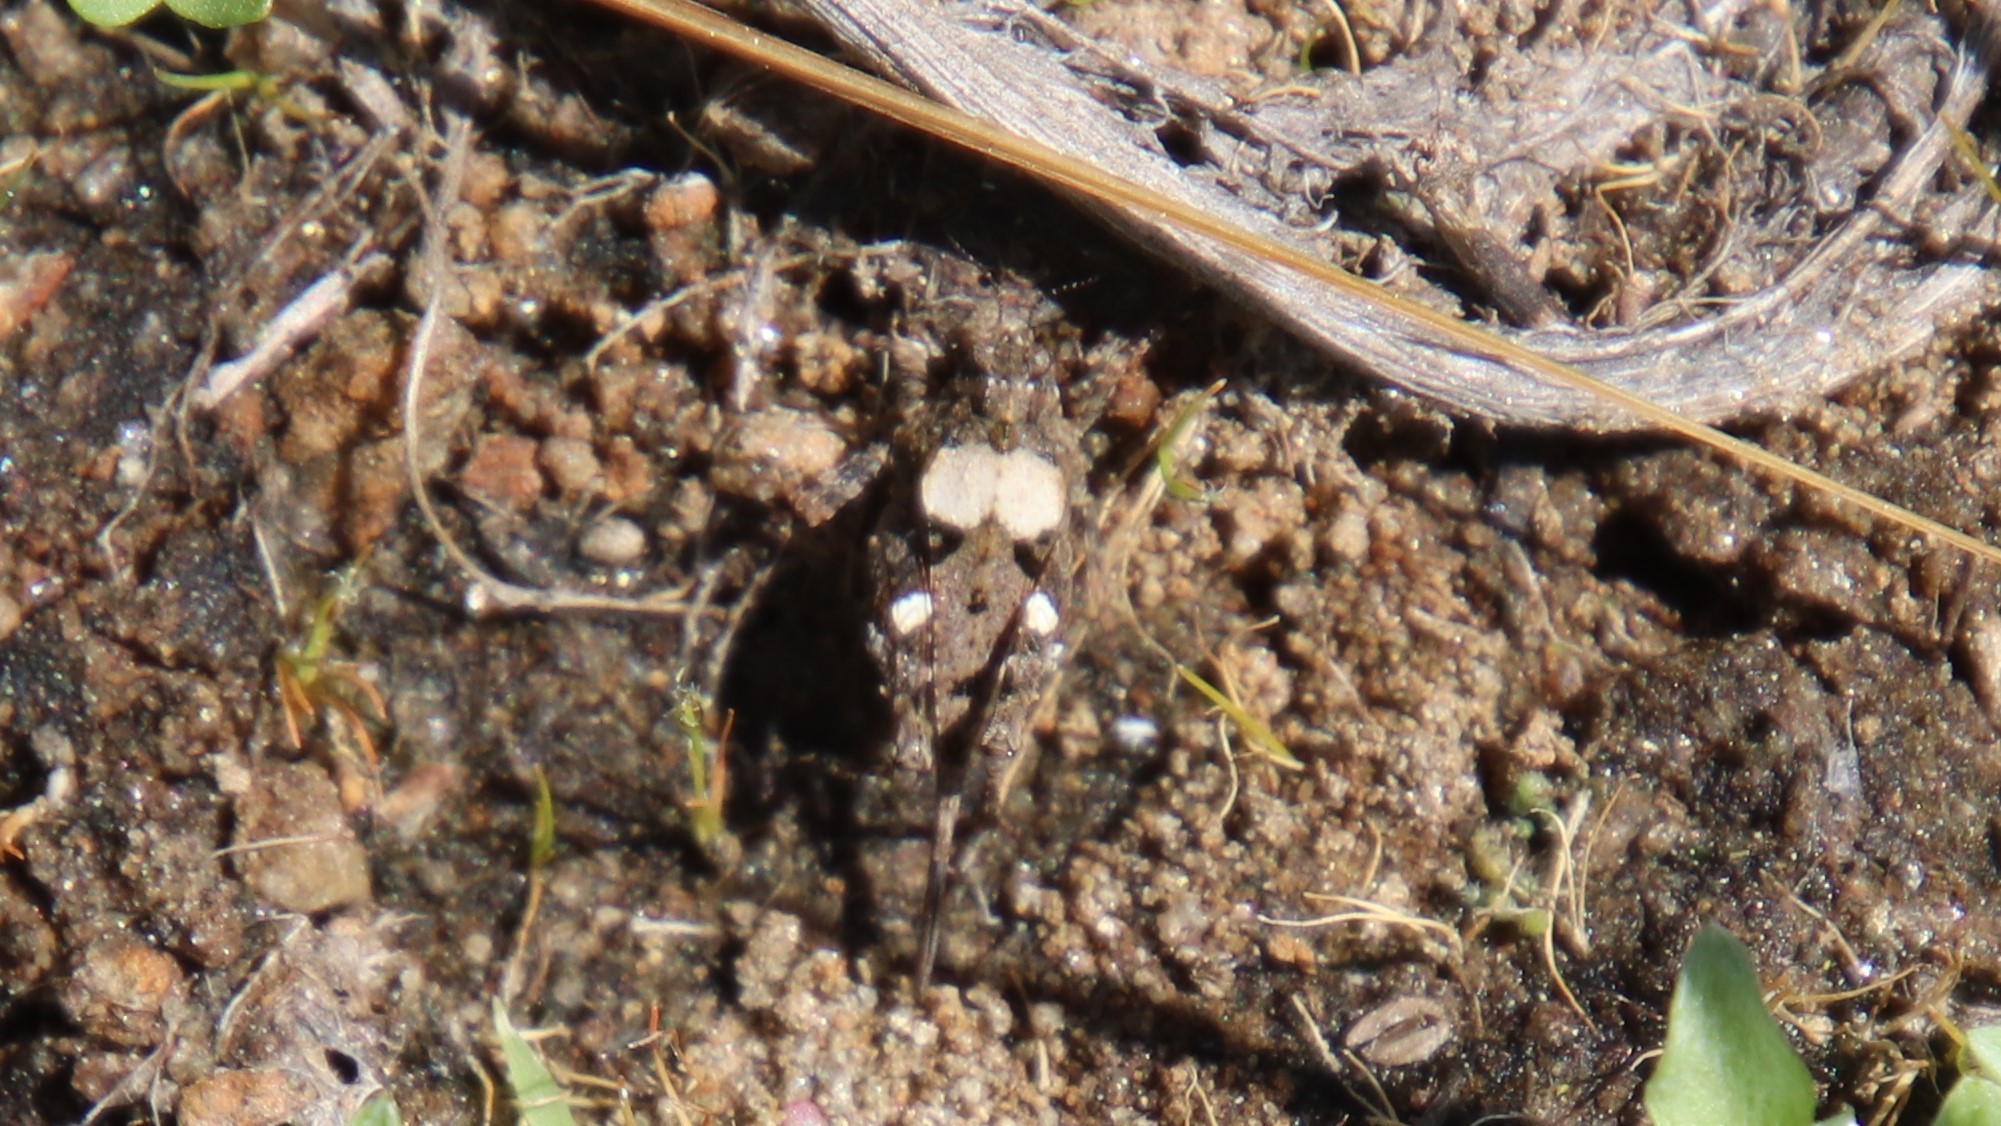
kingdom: Animalia
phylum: Arthropoda
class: Insecta
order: Orthoptera
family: Tetrigidae
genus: Paratettix
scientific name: Paratettix mexicanus
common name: Mexican pygmy grasshopper
